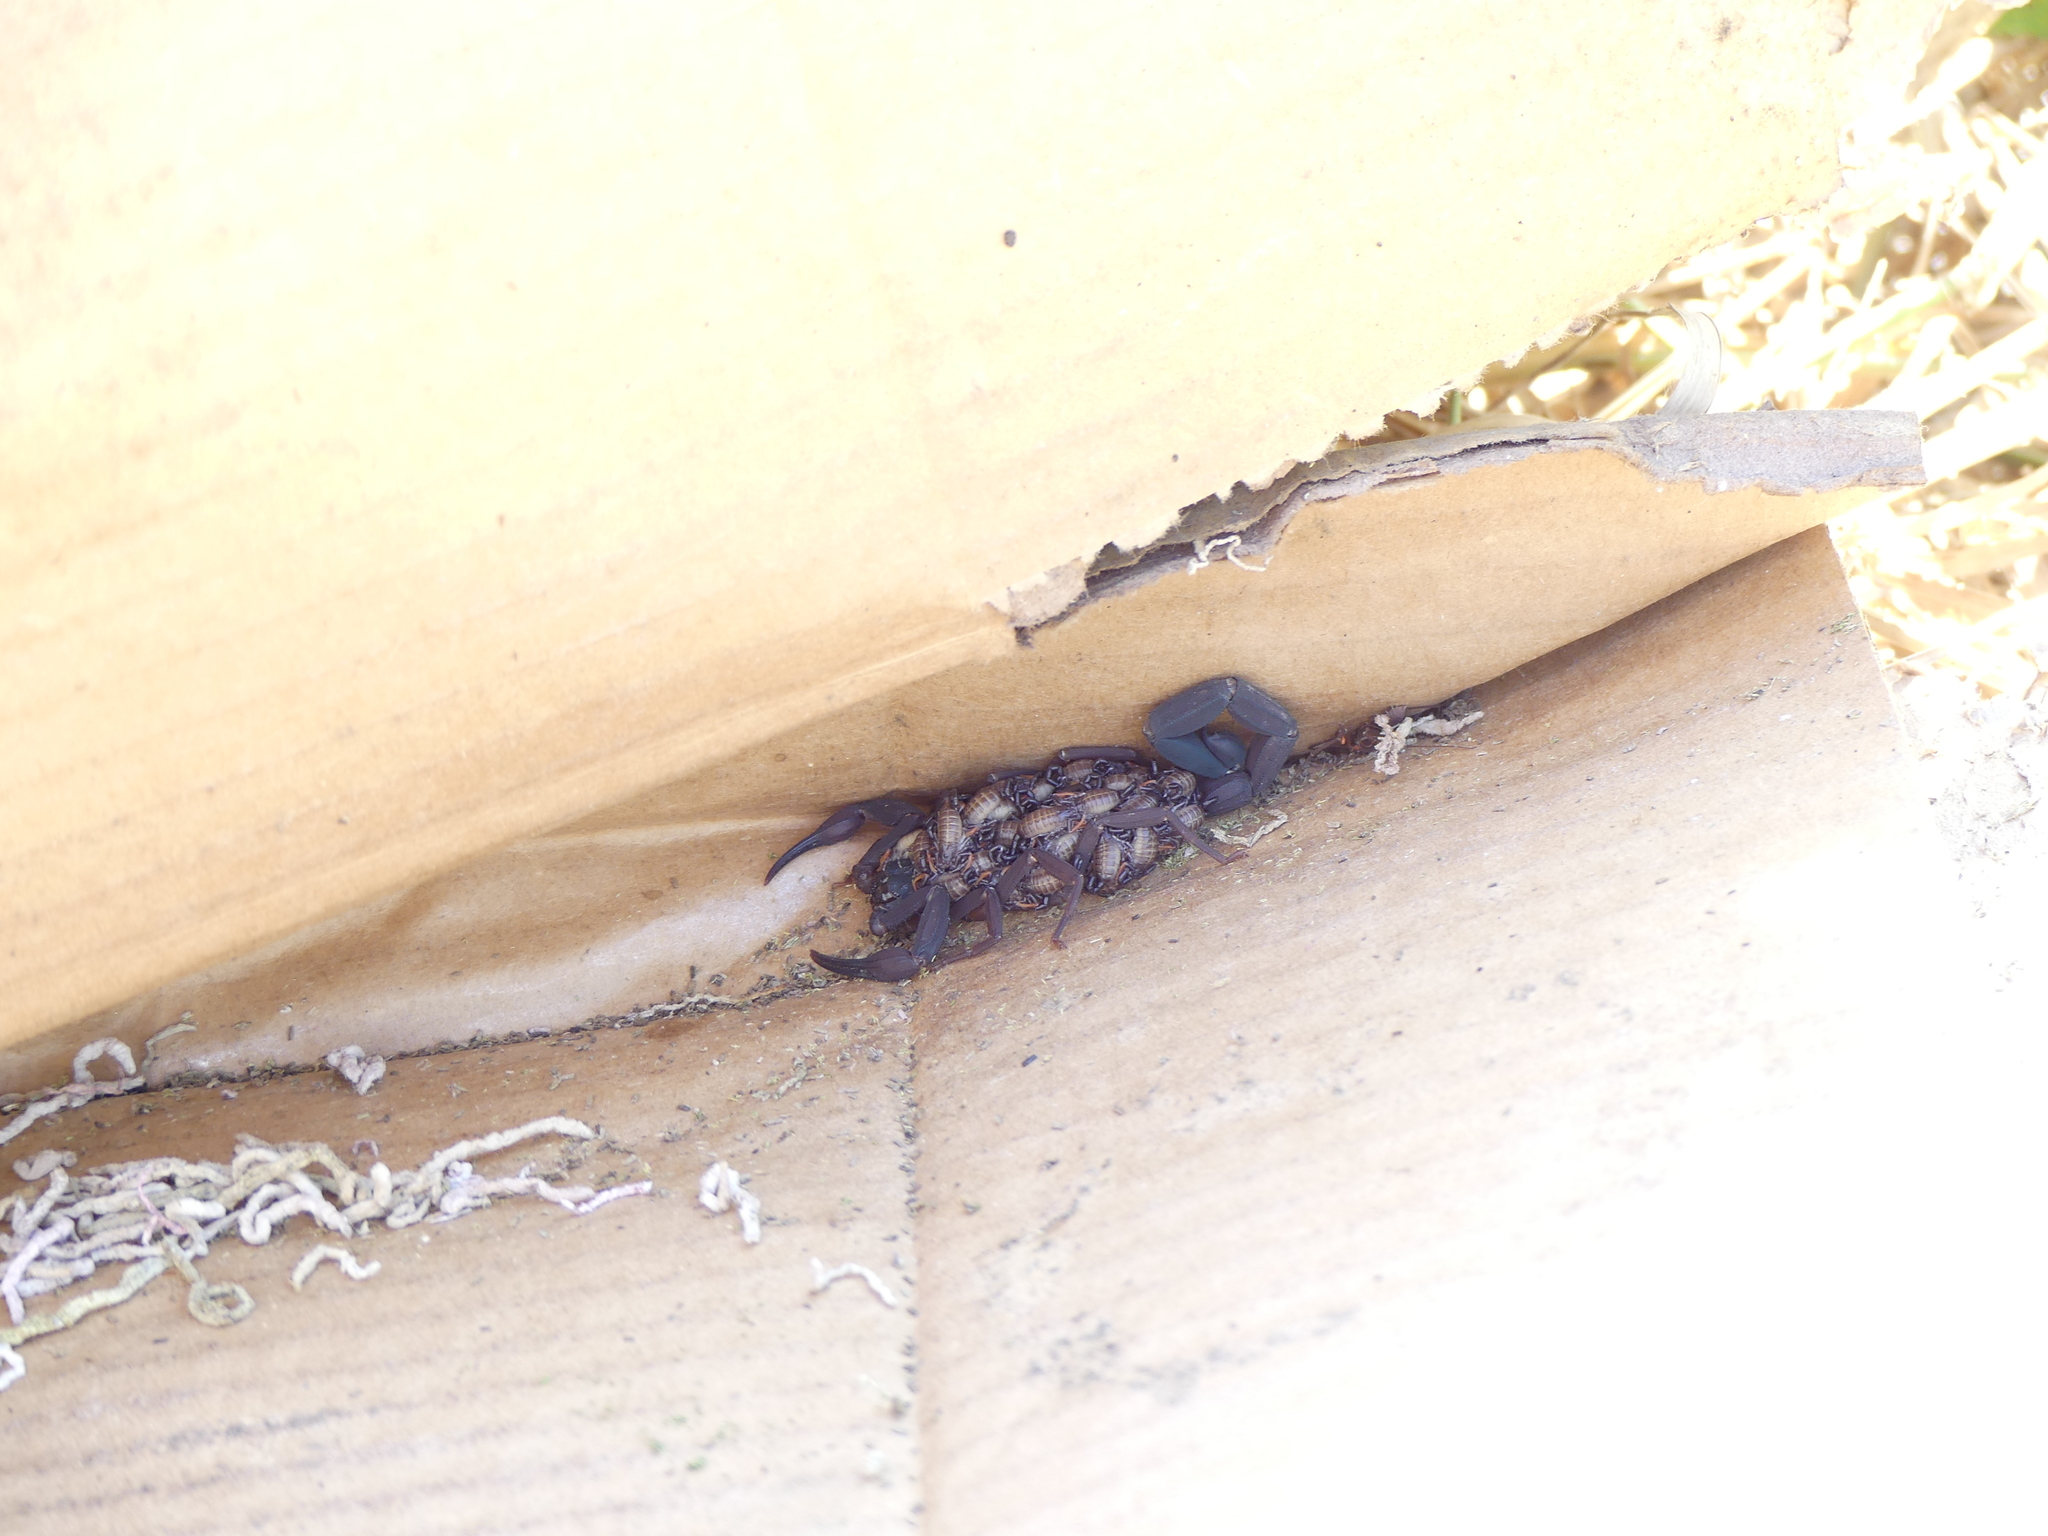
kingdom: Animalia
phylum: Arthropoda
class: Arachnida
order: Scorpiones
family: Buthidae
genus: Centruroides
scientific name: Centruroides gracilis
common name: Scorpions
